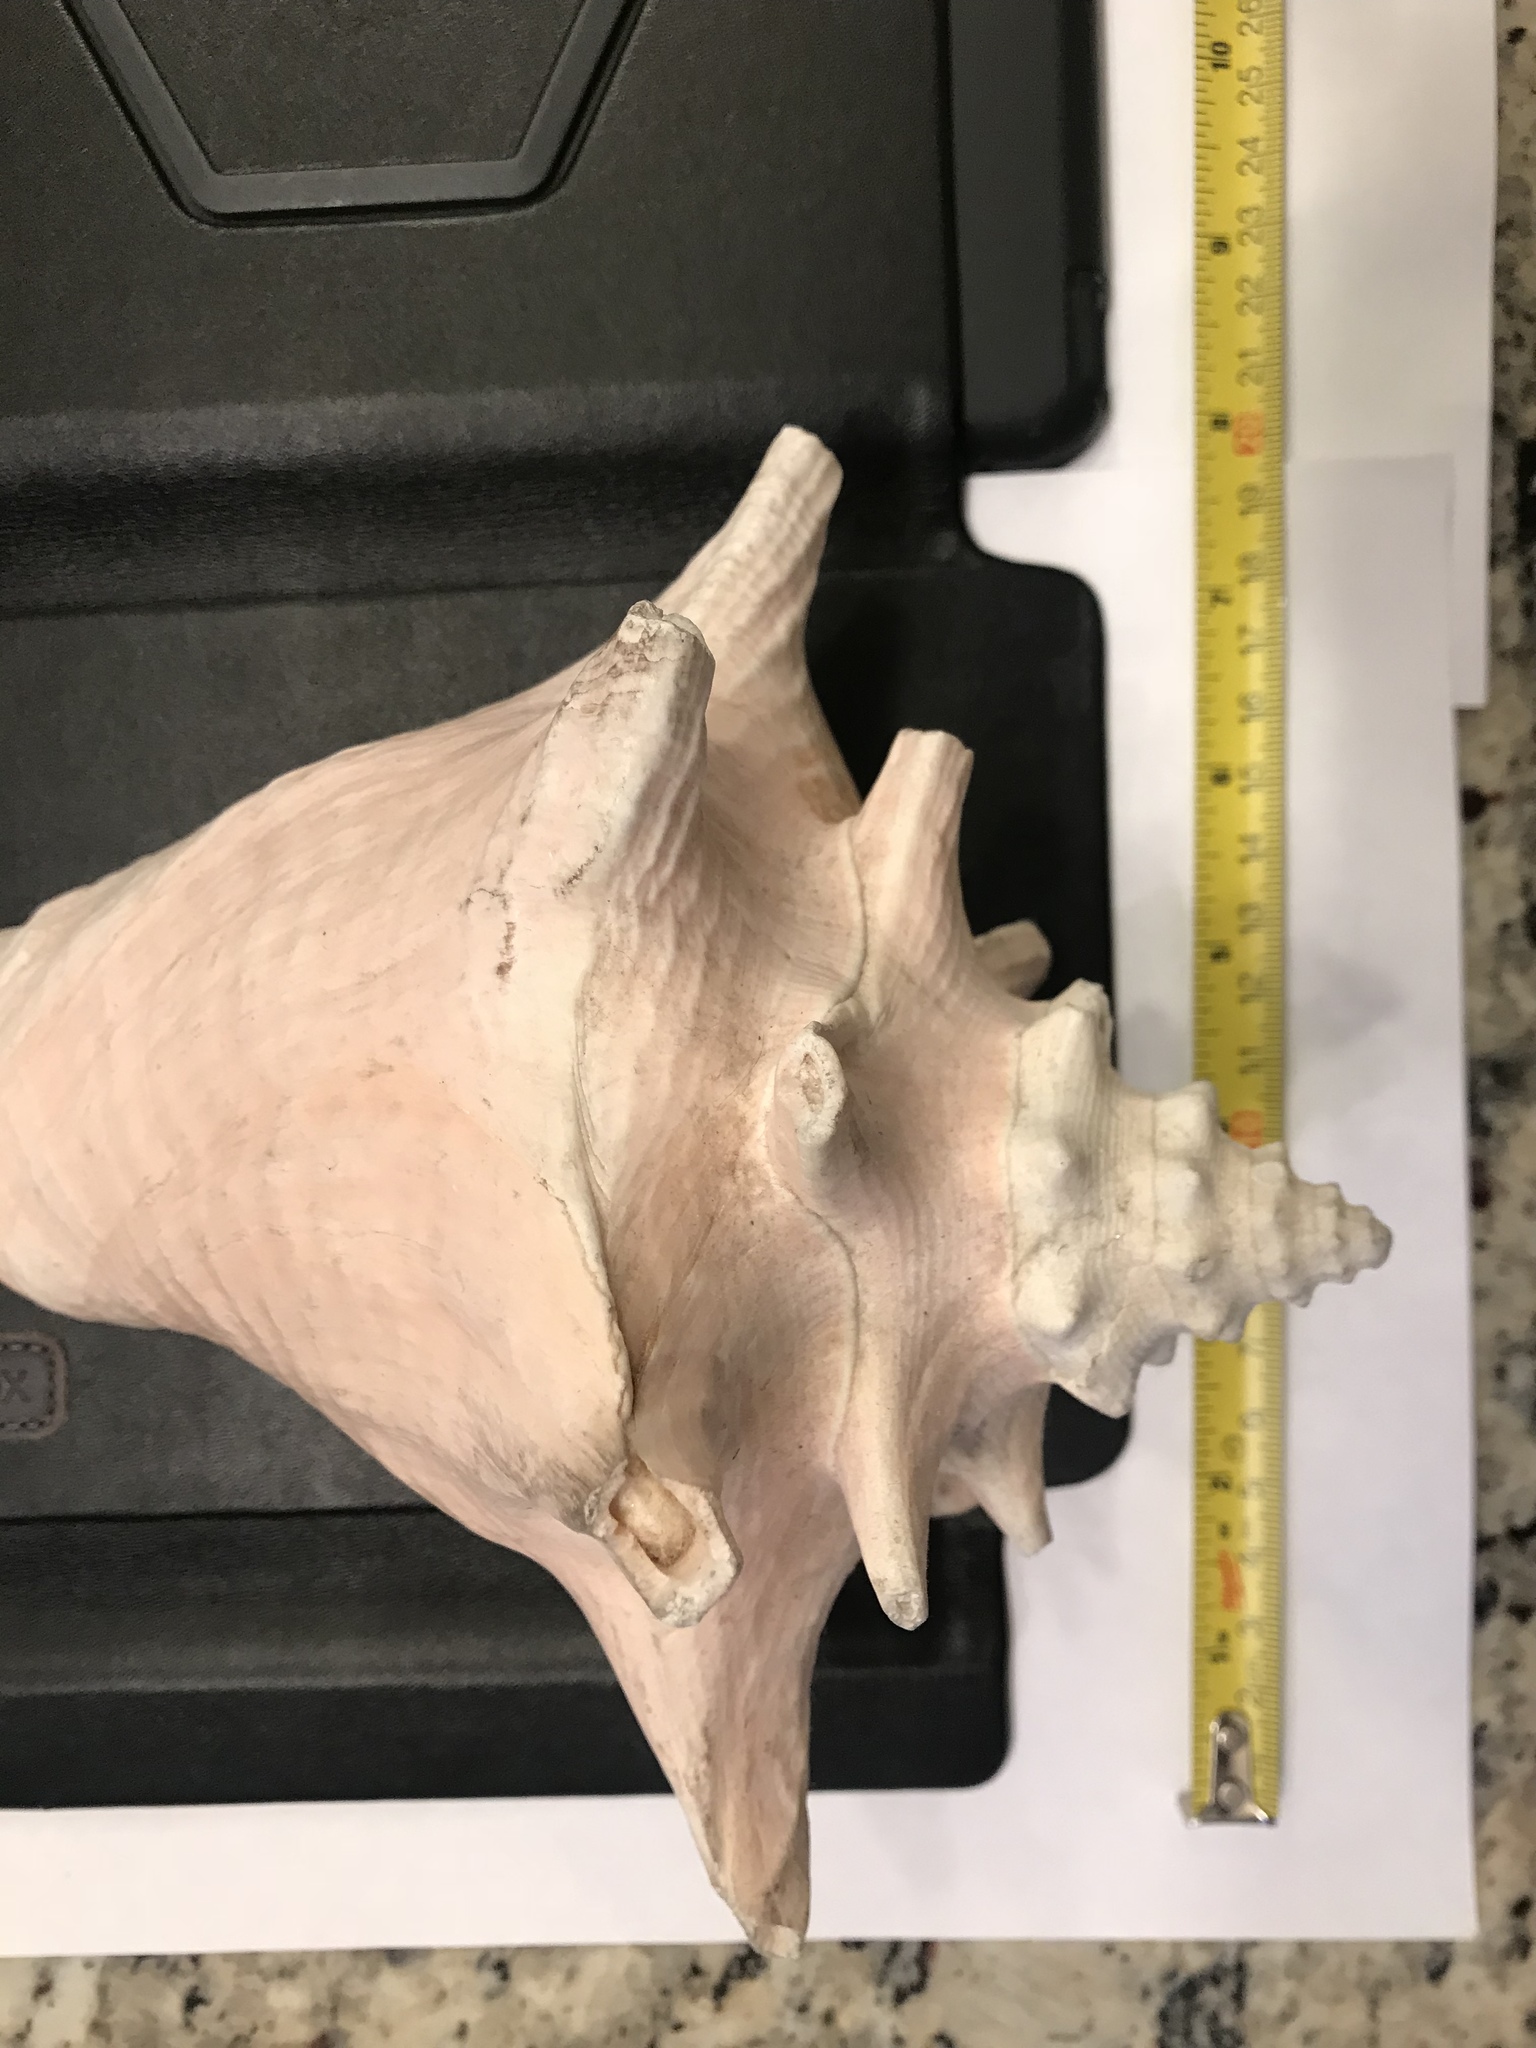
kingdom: Animalia
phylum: Mollusca
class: Gastropoda
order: Littorinimorpha
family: Strombidae
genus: Aliger
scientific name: Aliger gigas
